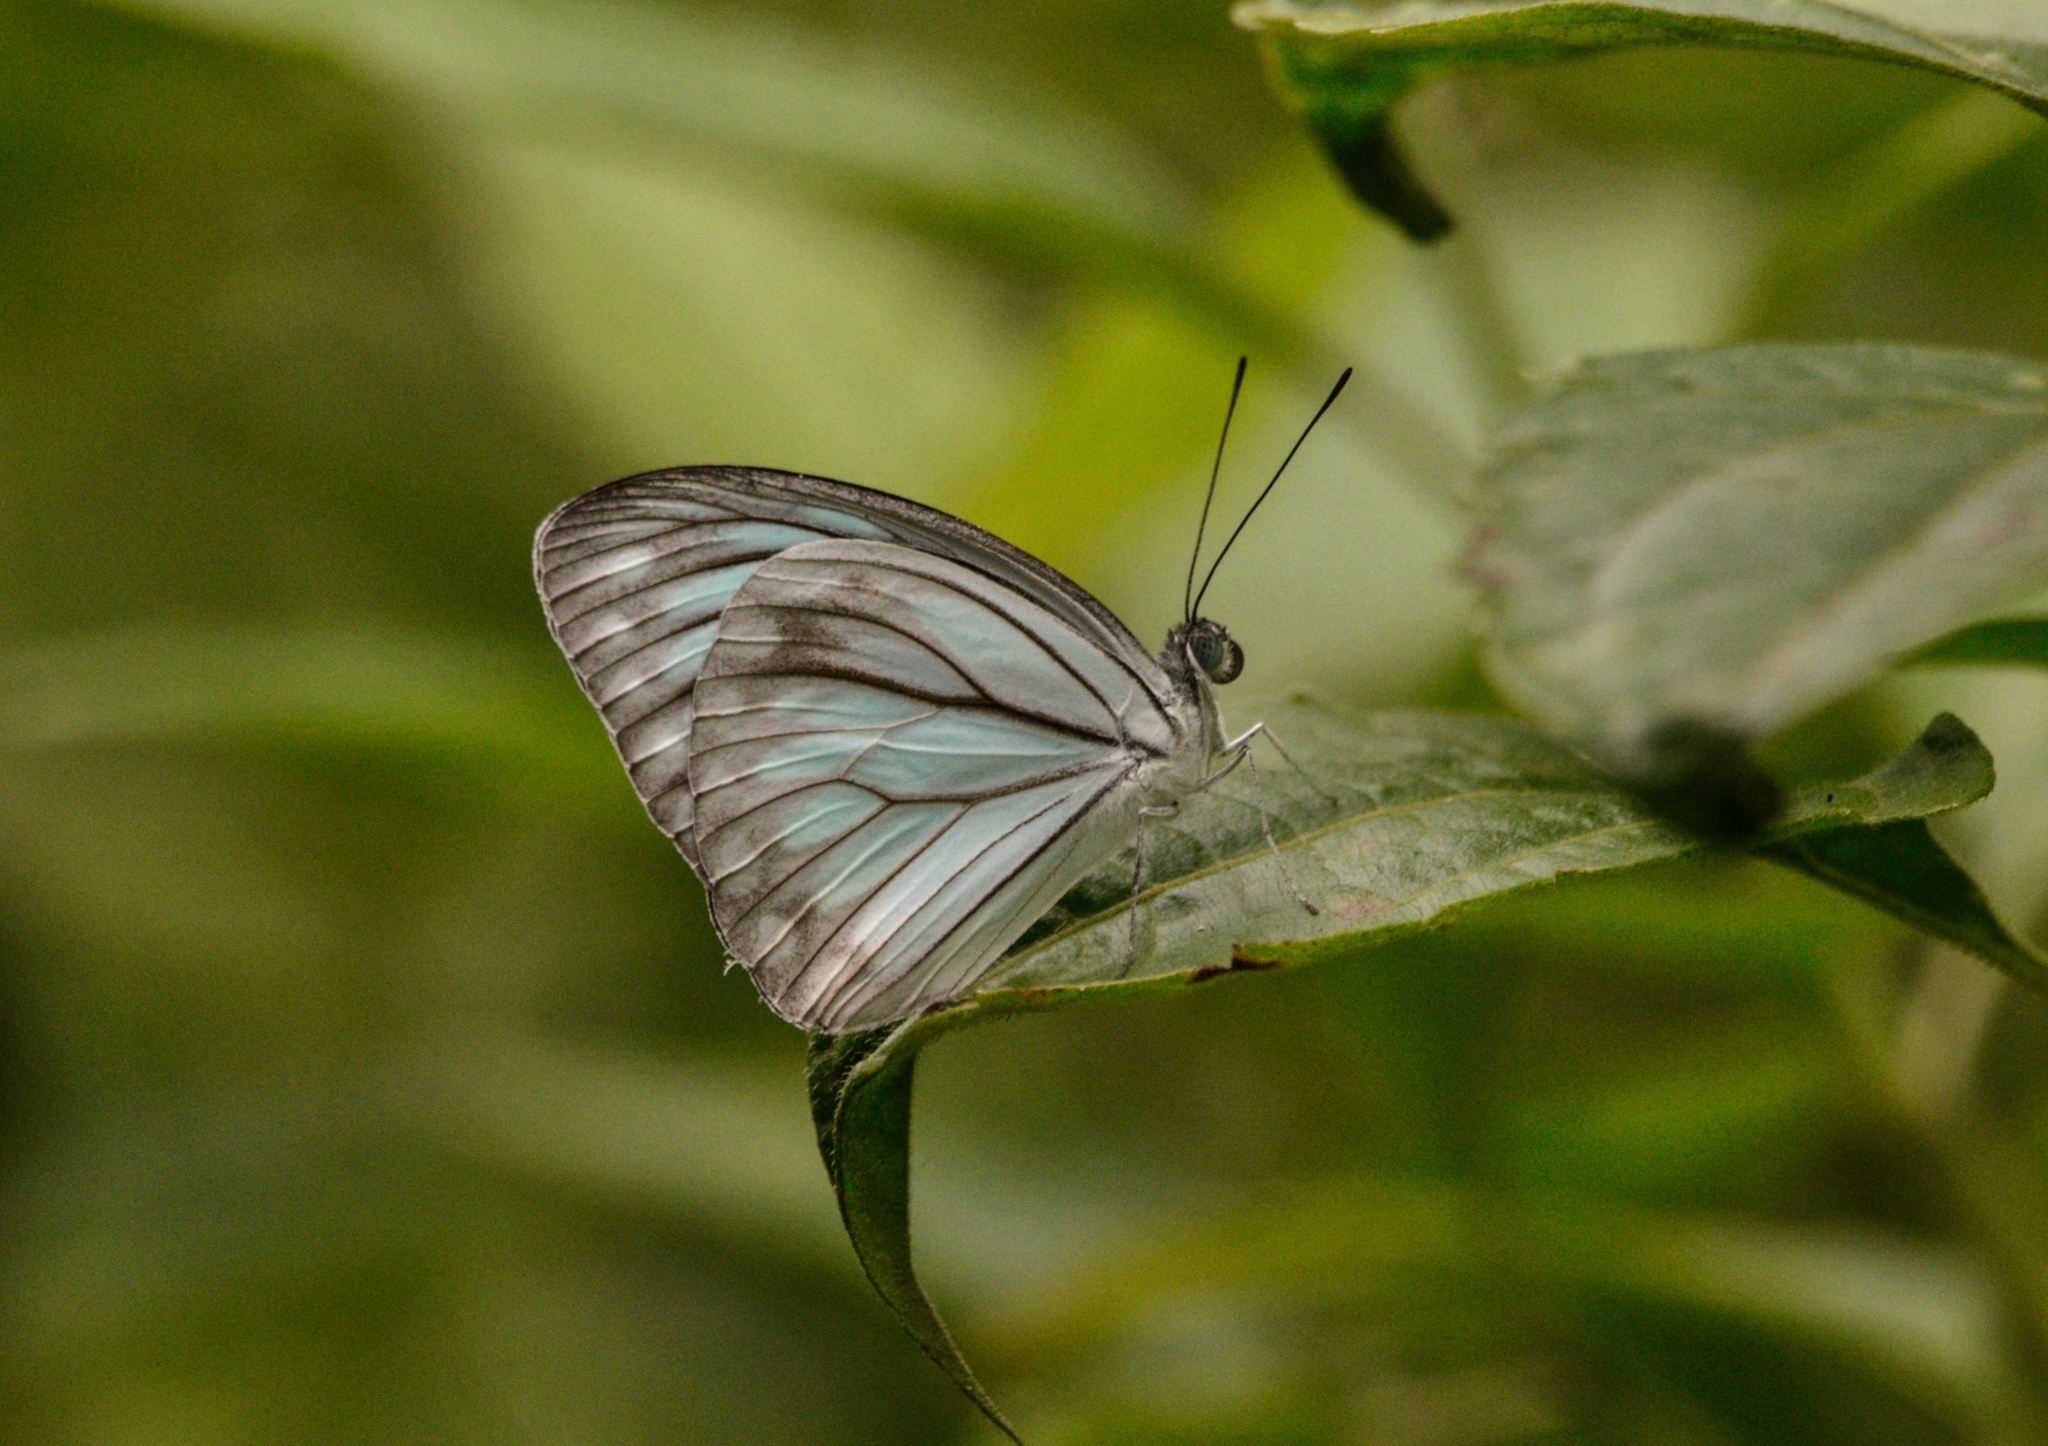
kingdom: Animalia
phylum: Arthropoda
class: Insecta
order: Lepidoptera
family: Pieridae
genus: Pareronia
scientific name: Pareronia hippia
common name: Indian wanderer
